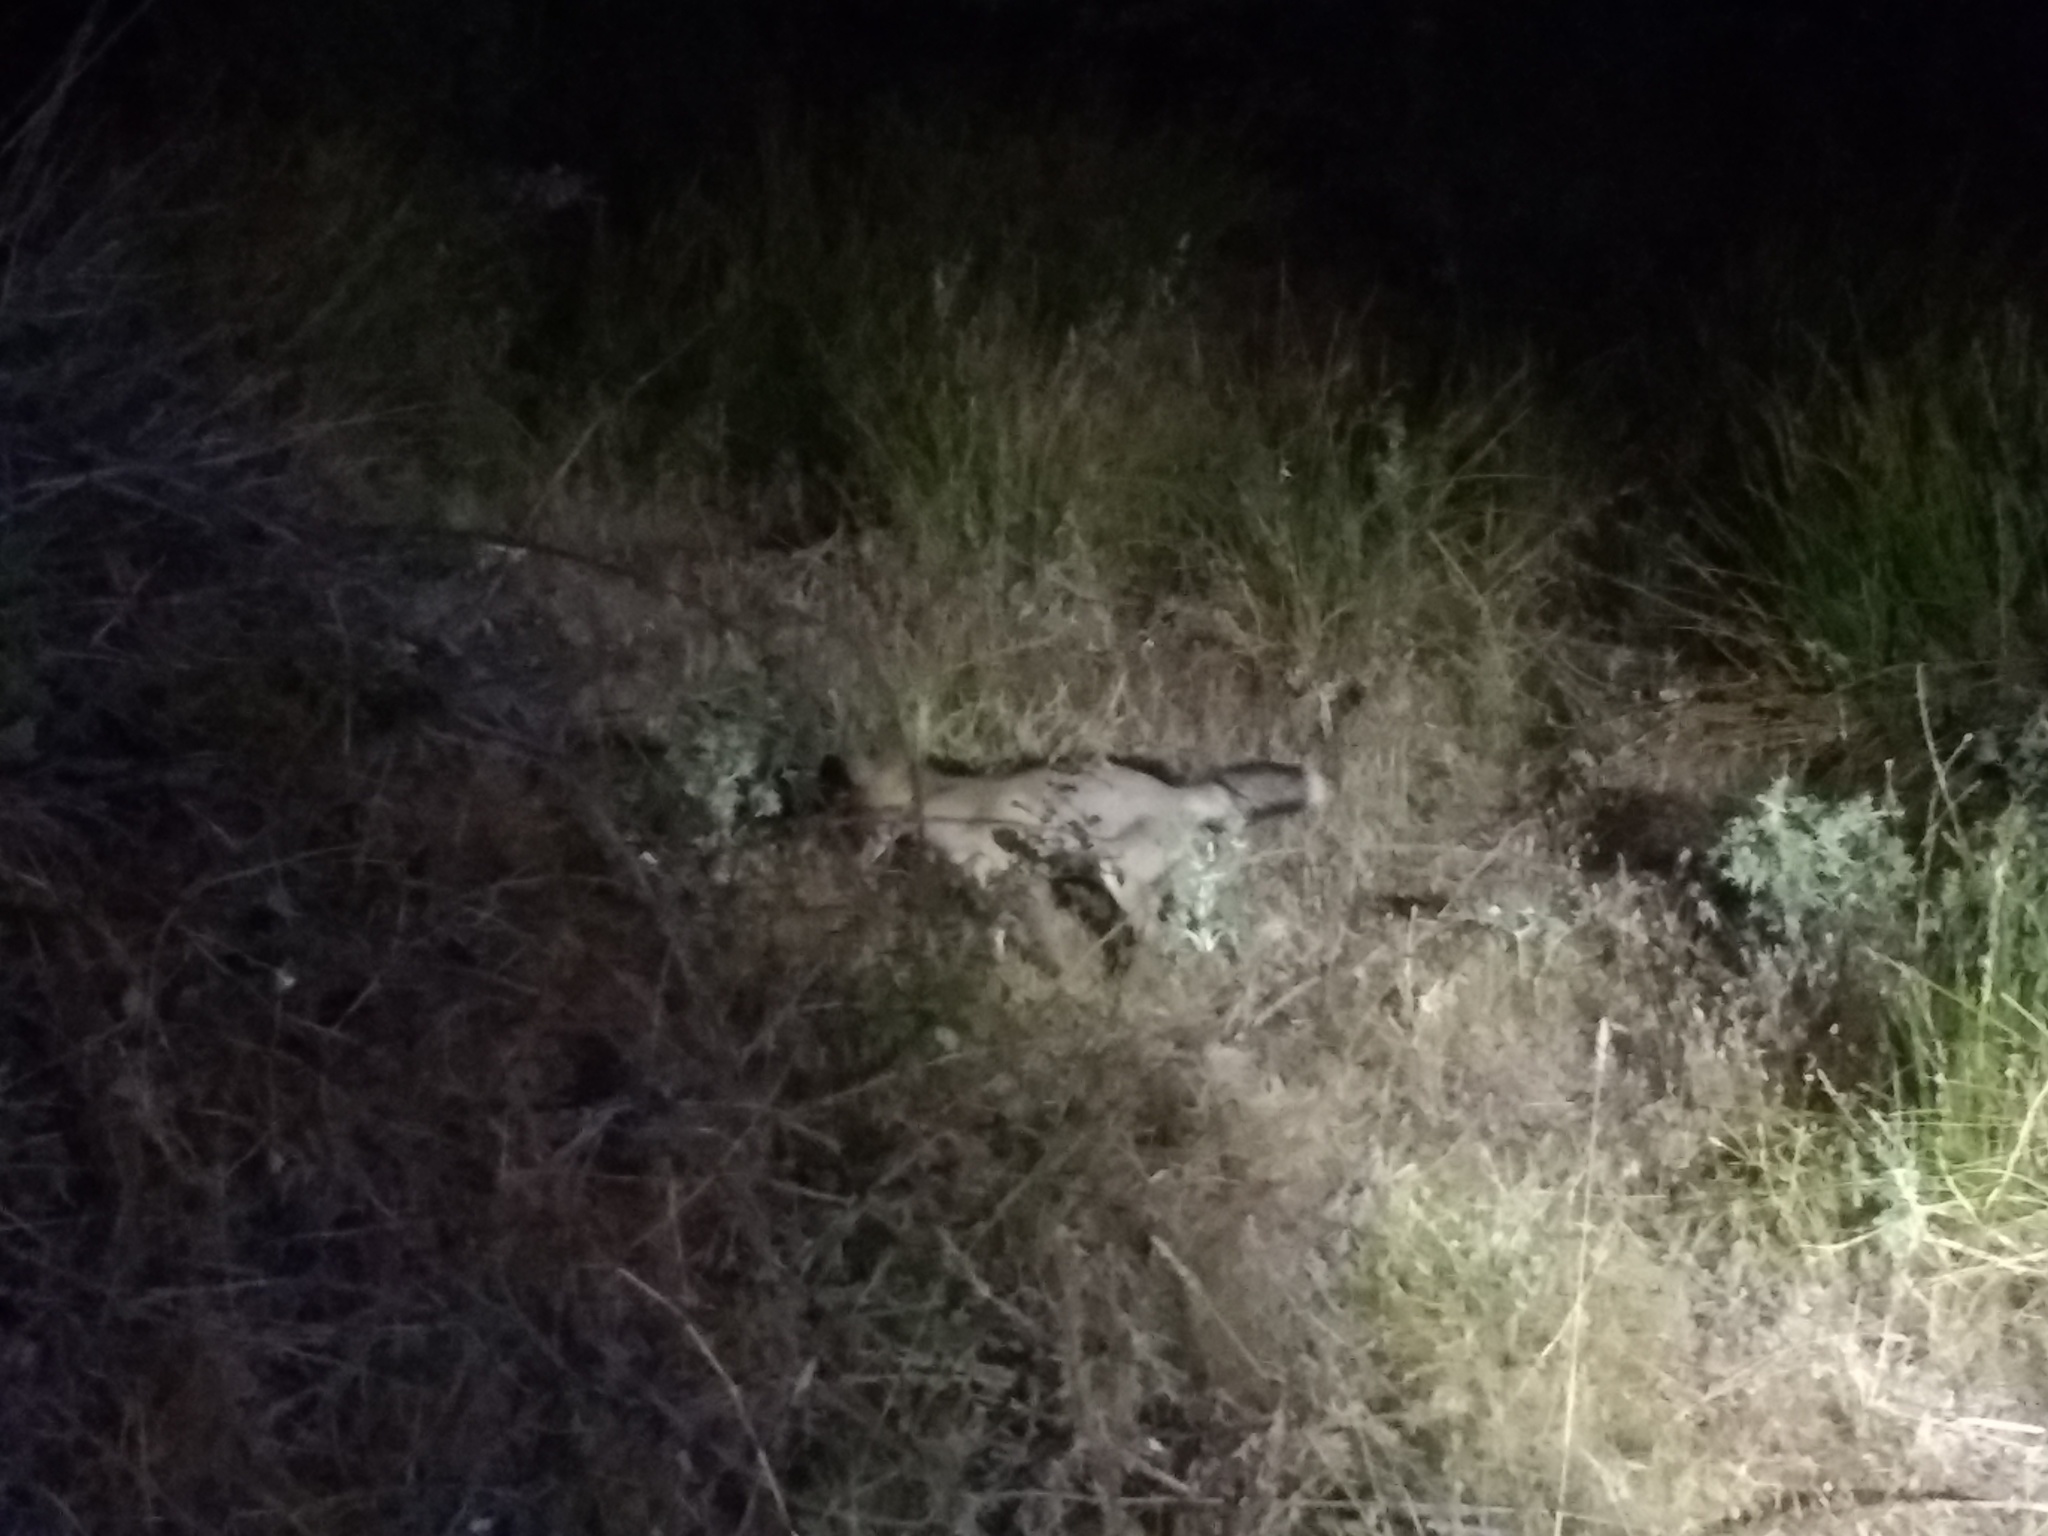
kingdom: Animalia
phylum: Chordata
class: Mammalia
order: Carnivora
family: Canidae
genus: Vulpes
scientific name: Vulpes vulpes
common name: Red fox
